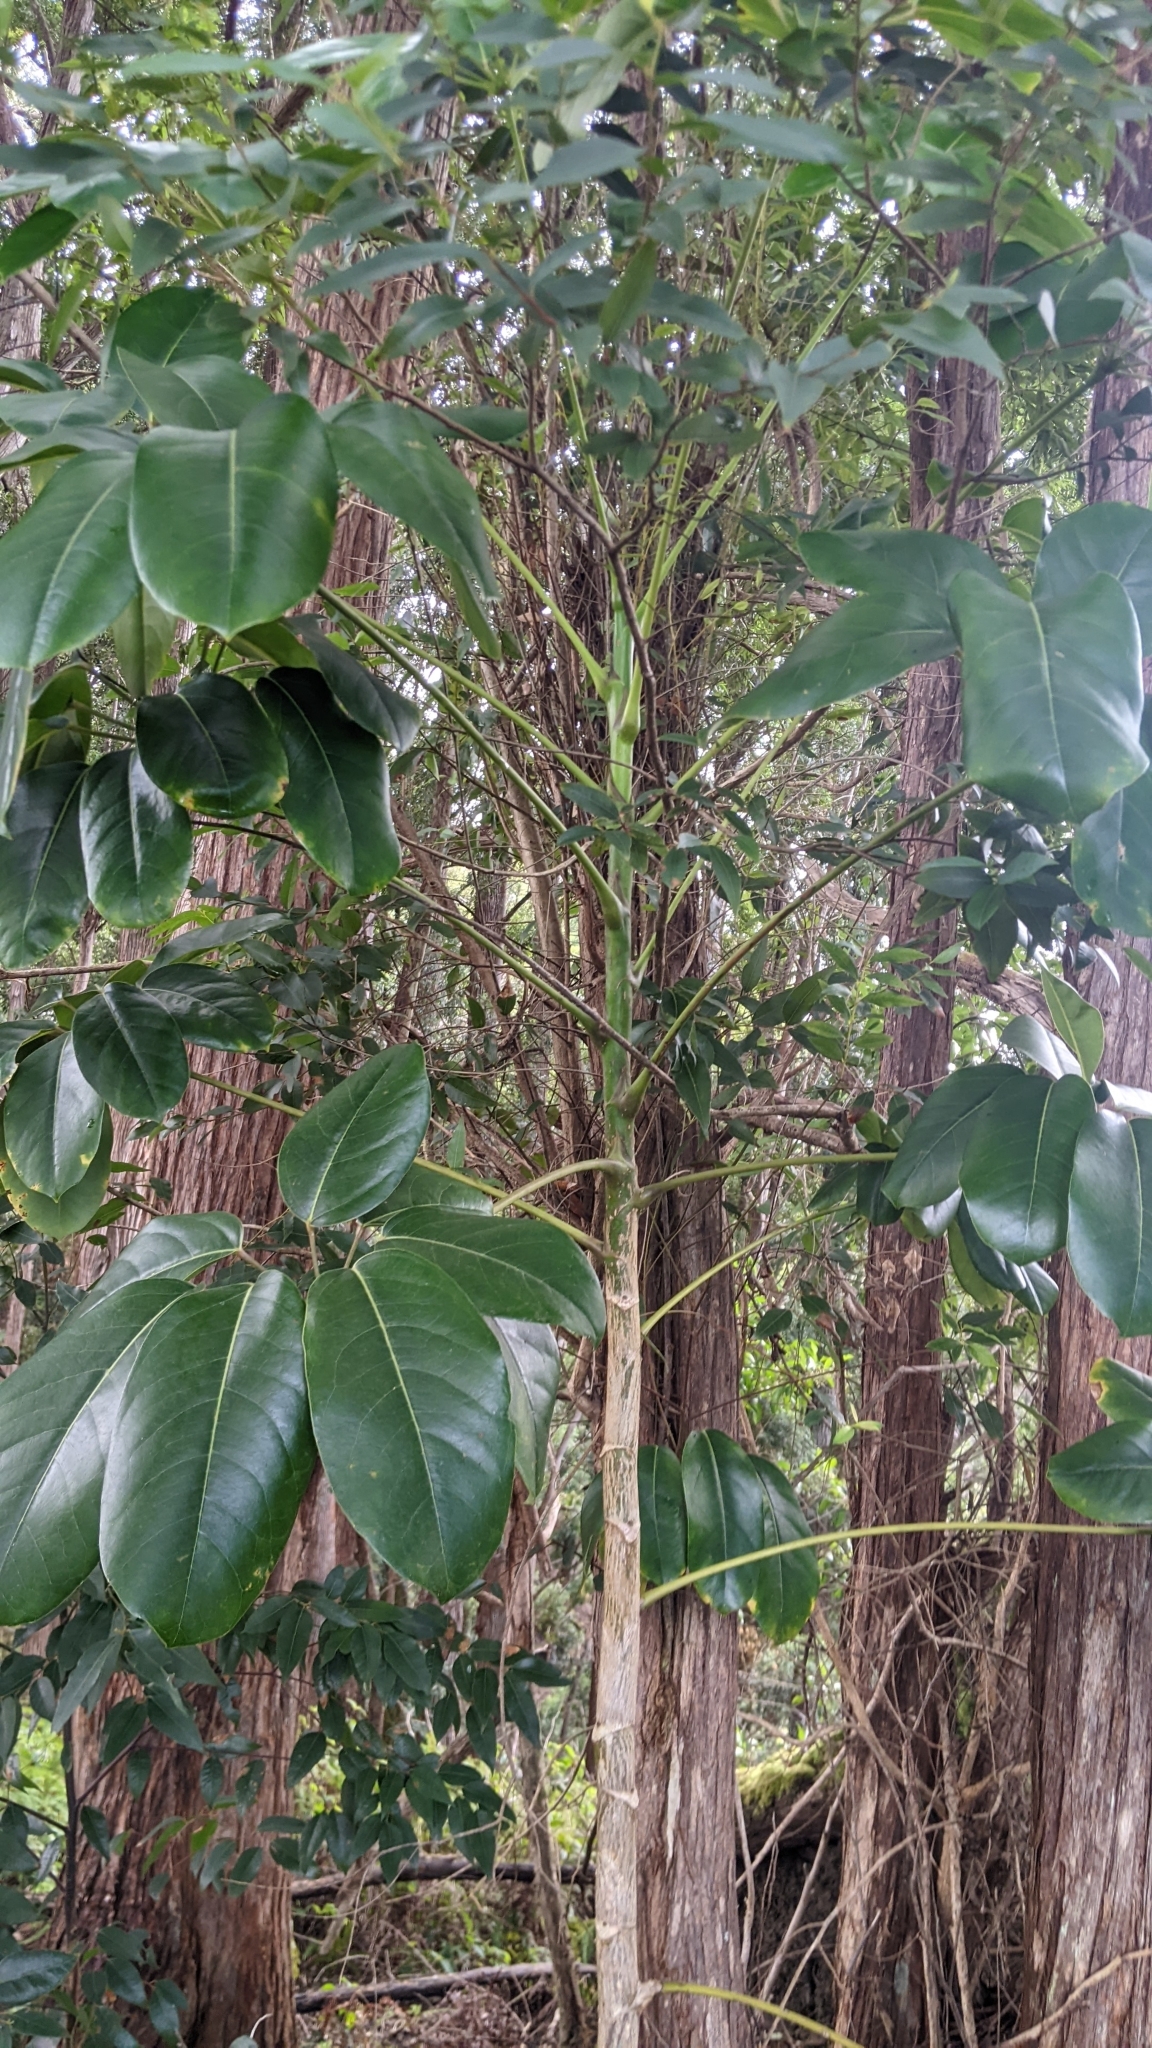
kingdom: Plantae
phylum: Tracheophyta
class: Magnoliopsida
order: Apiales
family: Araliaceae
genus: Heptapleurum
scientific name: Heptapleurum actinophyllum
